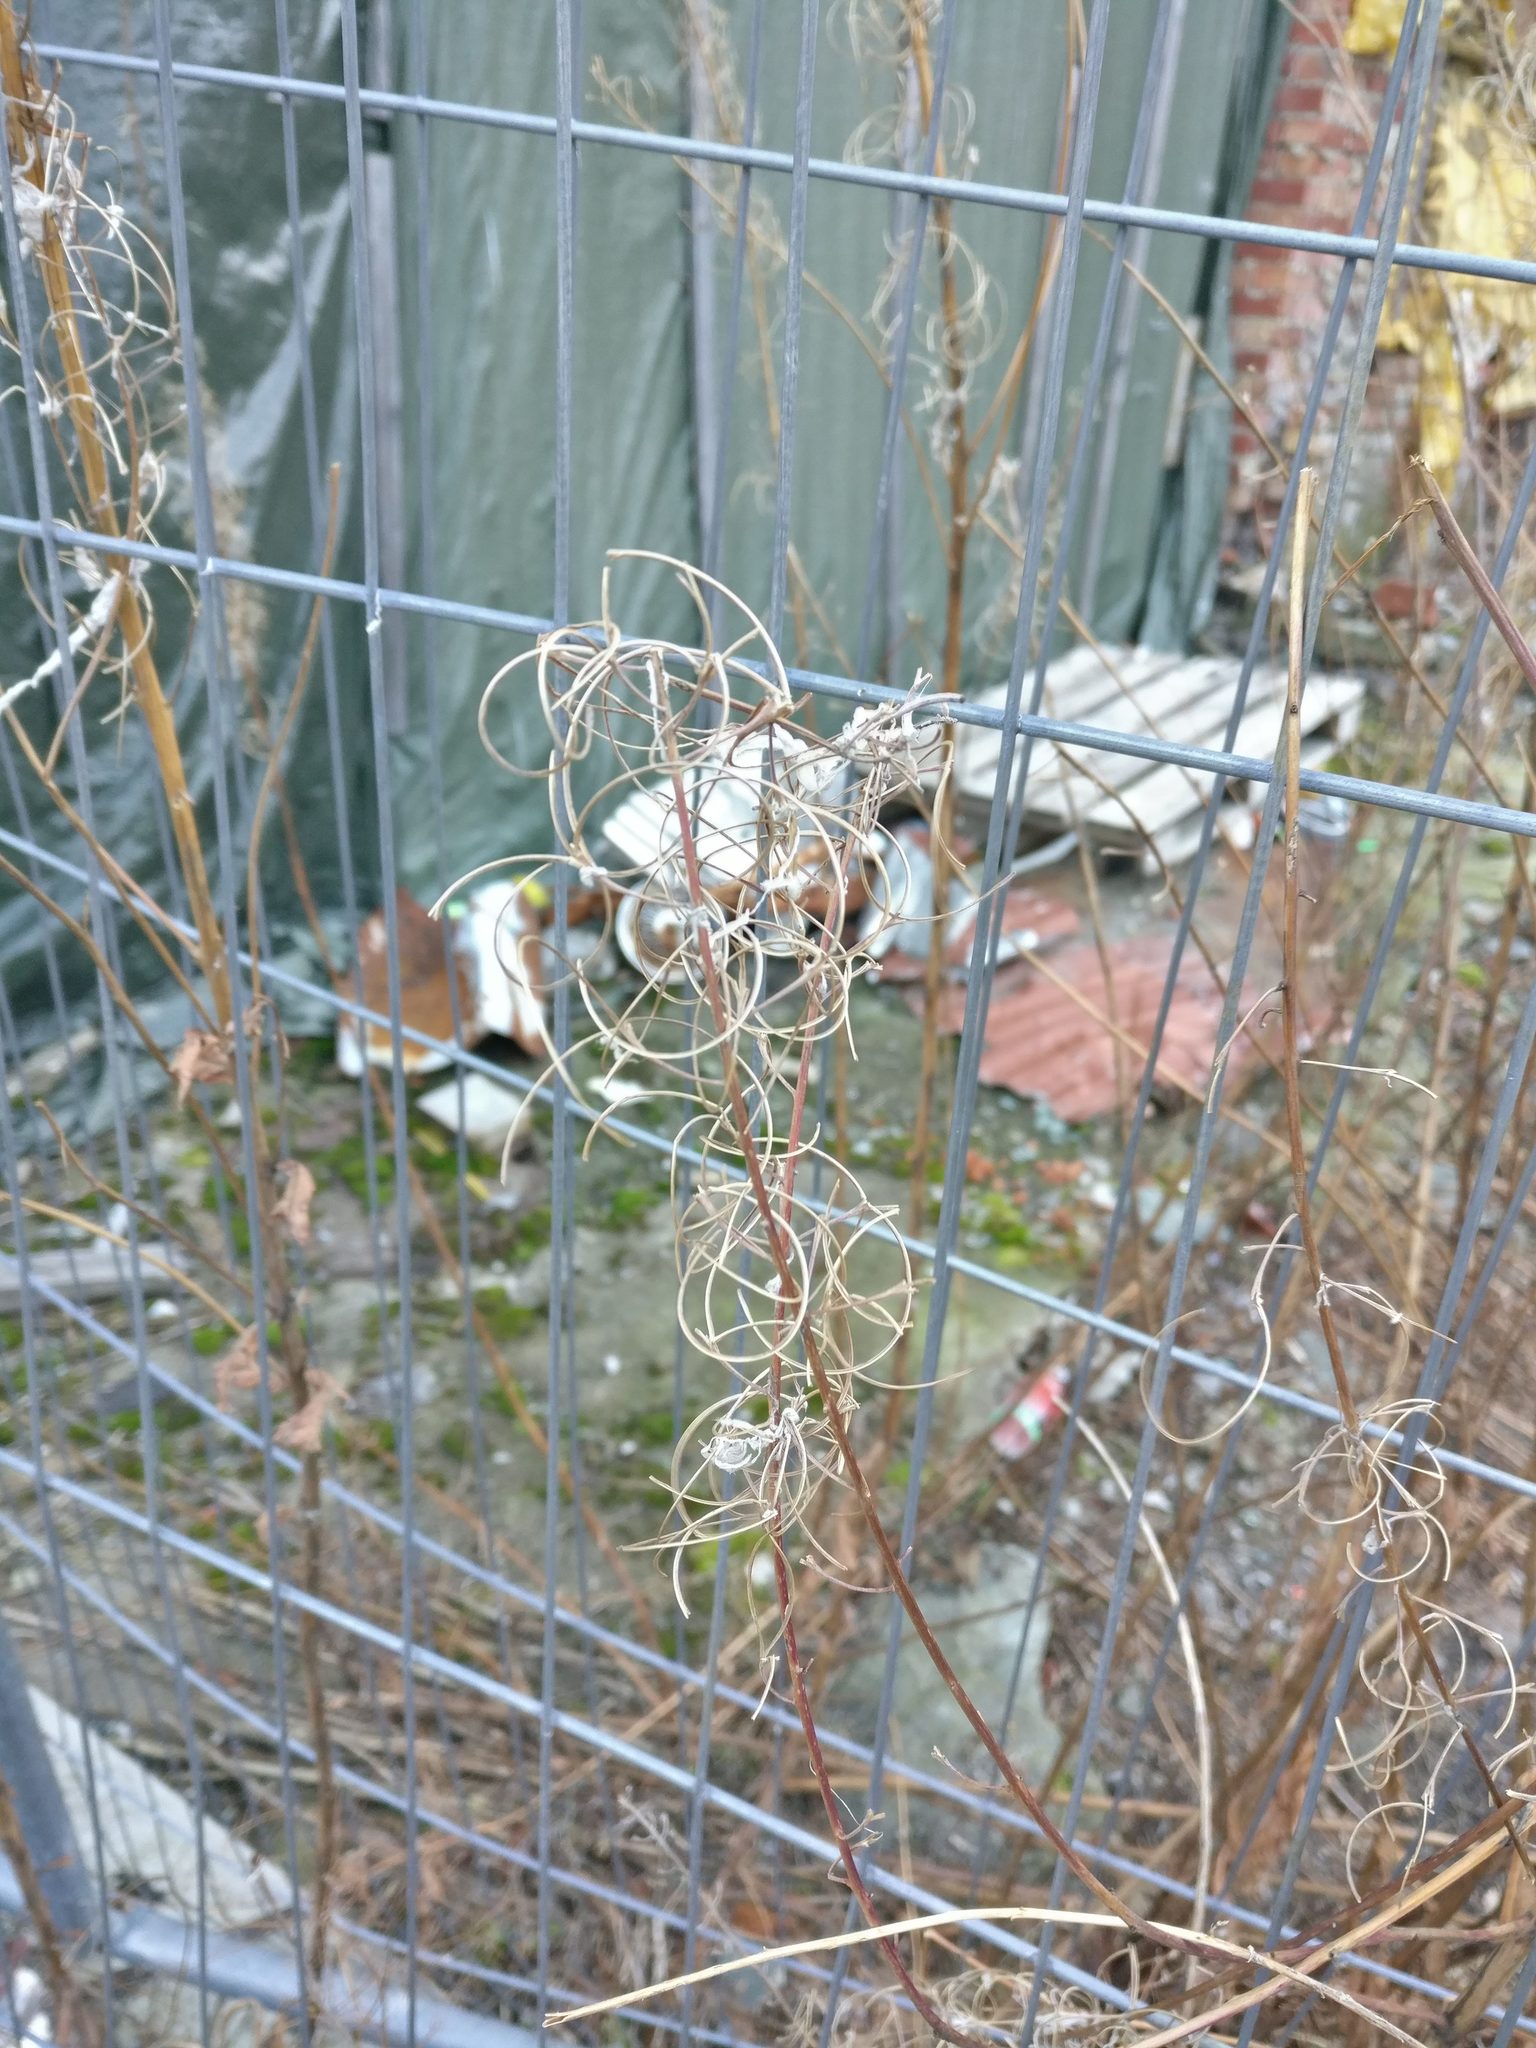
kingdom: Plantae
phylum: Tracheophyta
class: Magnoliopsida
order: Myrtales
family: Onagraceae
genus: Chamaenerion
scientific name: Chamaenerion angustifolium
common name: Fireweed
